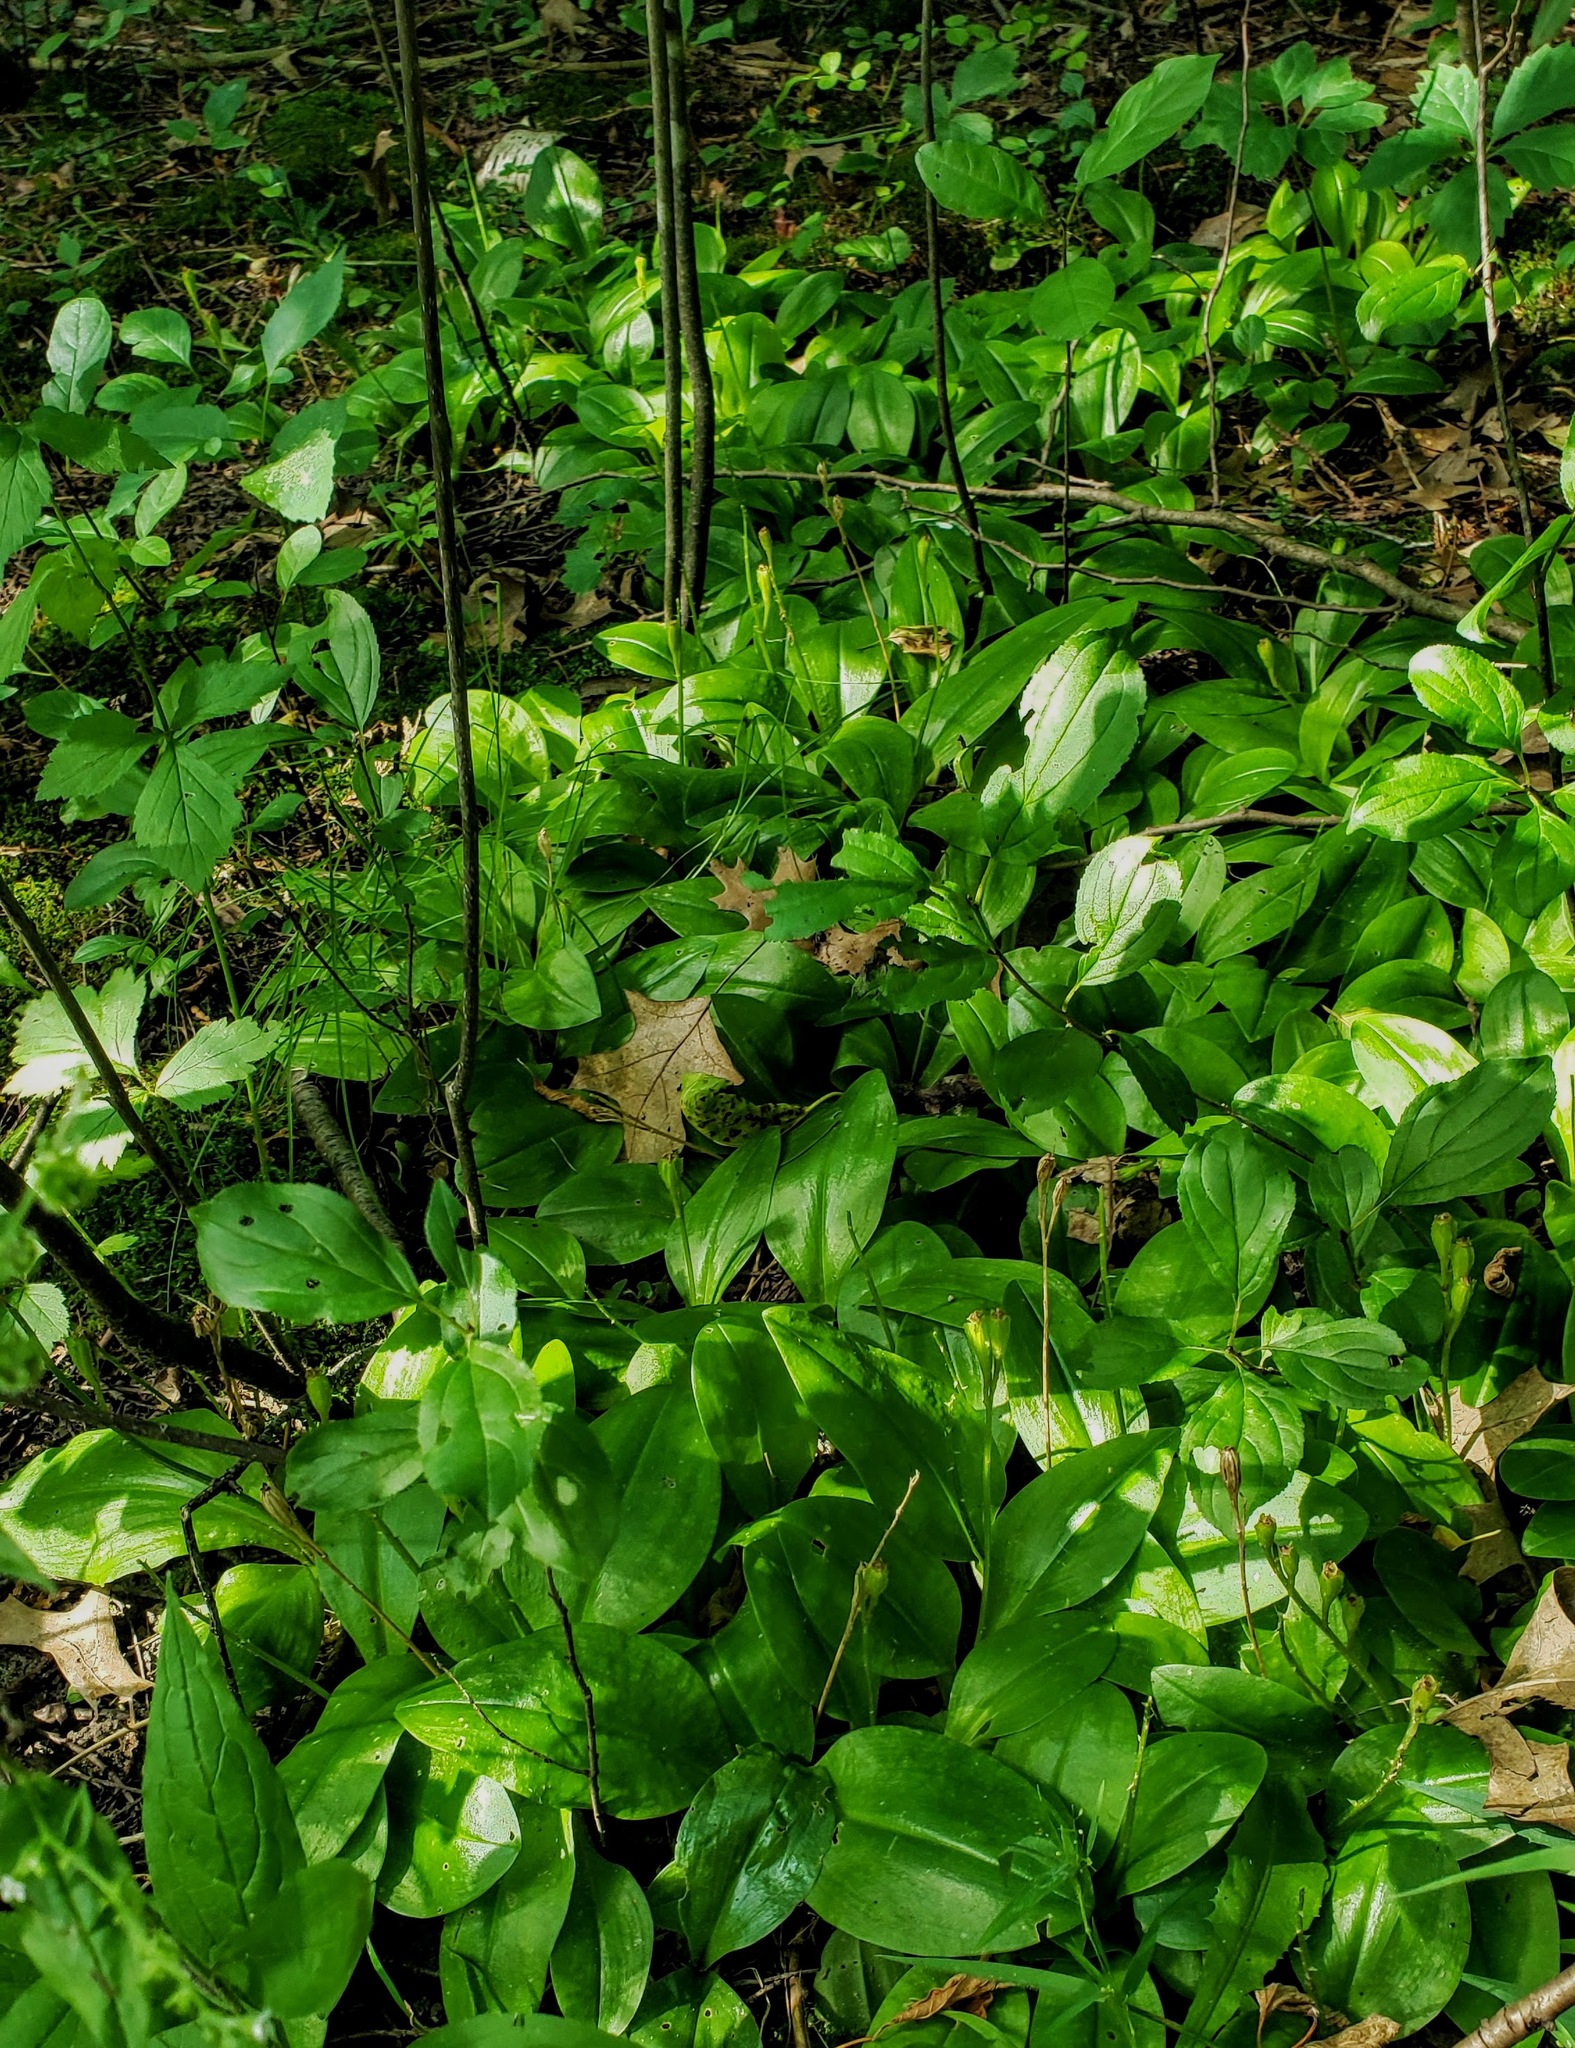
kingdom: Plantae
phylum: Tracheophyta
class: Liliopsida
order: Asparagales
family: Orchidaceae
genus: Liparis
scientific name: Liparis liliifolia
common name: Brown wide-lip orchid
